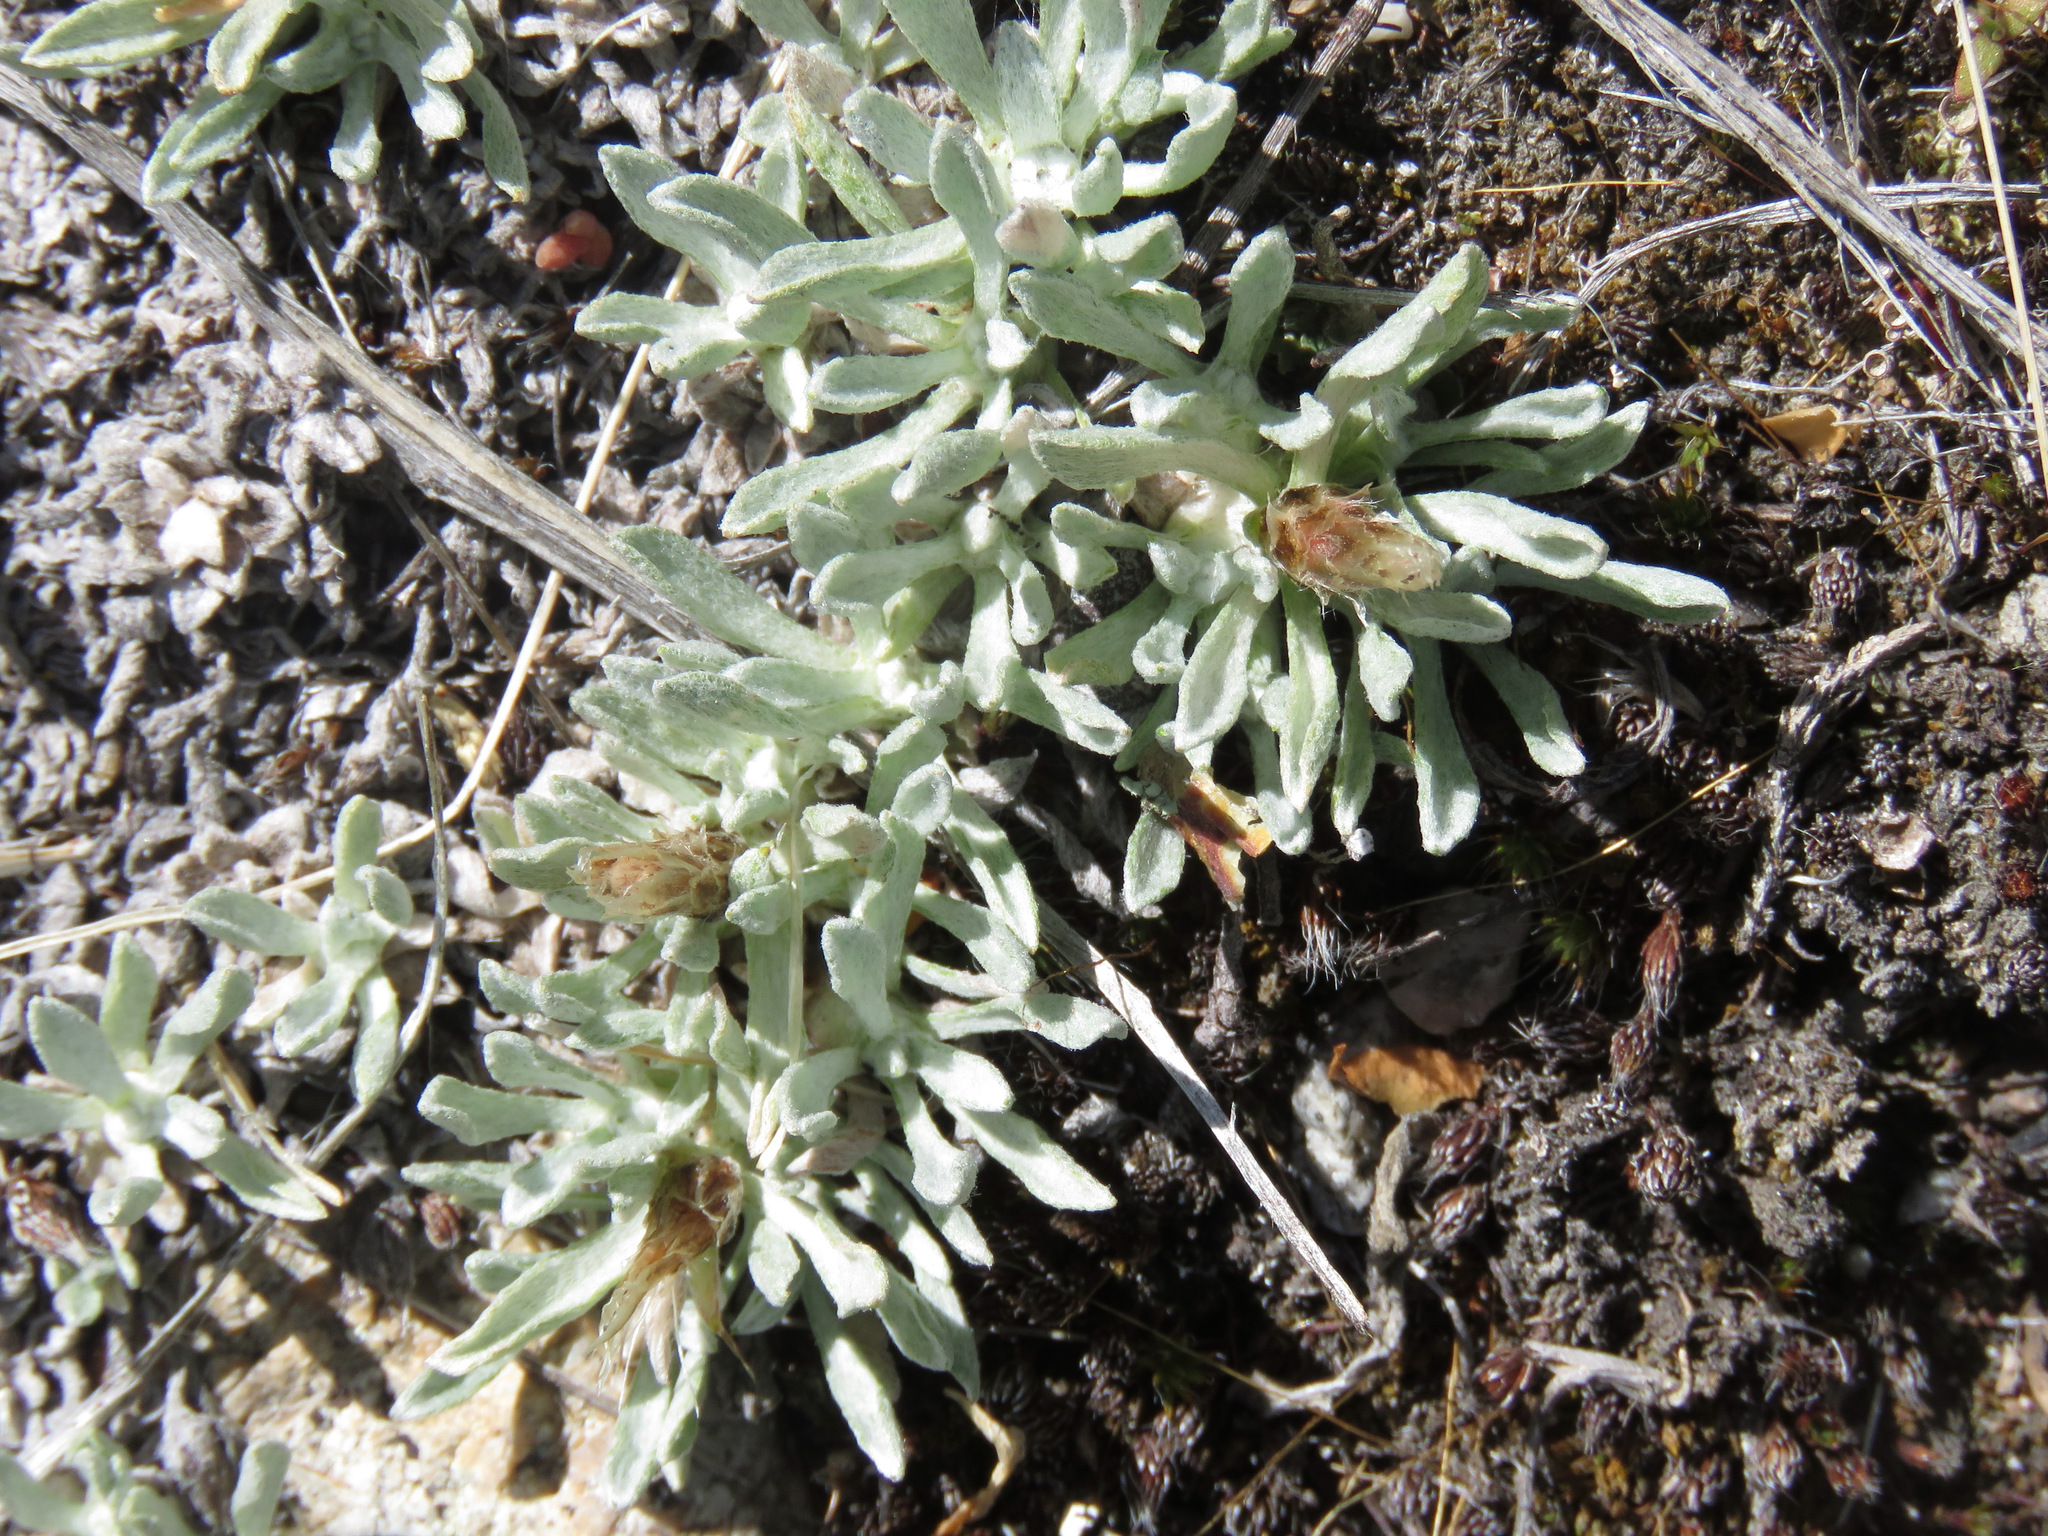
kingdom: Plantae
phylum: Tracheophyta
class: Magnoliopsida
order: Asterales
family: Asteraceae
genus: Antennaria
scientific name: Antennaria dimorpha
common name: Cushion pussytoes
